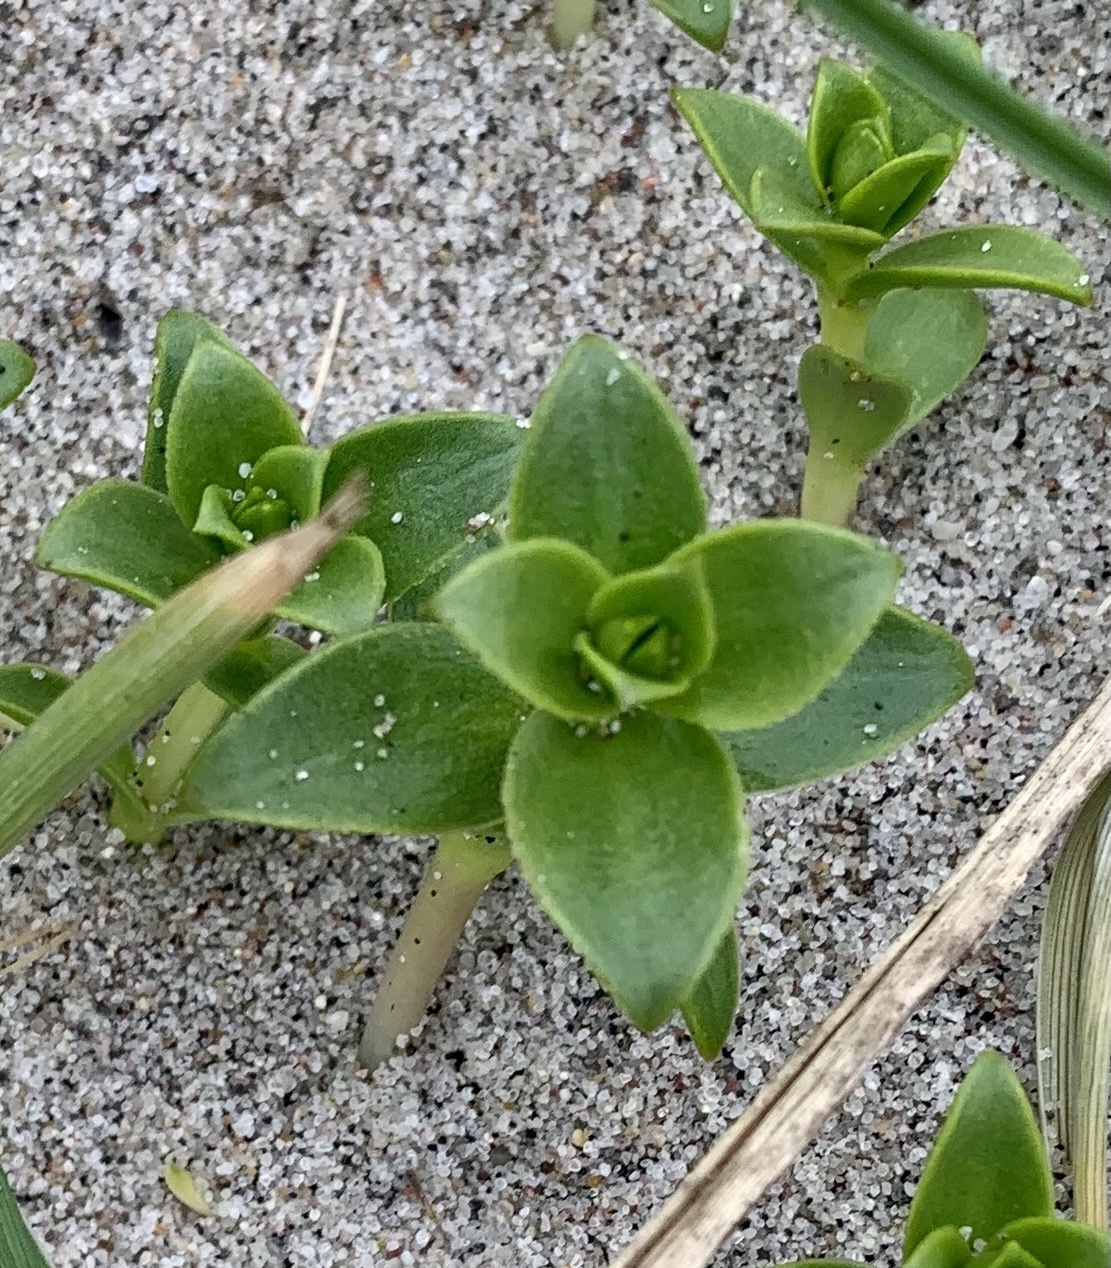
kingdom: Plantae
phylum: Tracheophyta
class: Magnoliopsida
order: Caryophyllales
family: Caryophyllaceae
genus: Honckenya
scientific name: Honckenya peploides
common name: Sea sandwort
